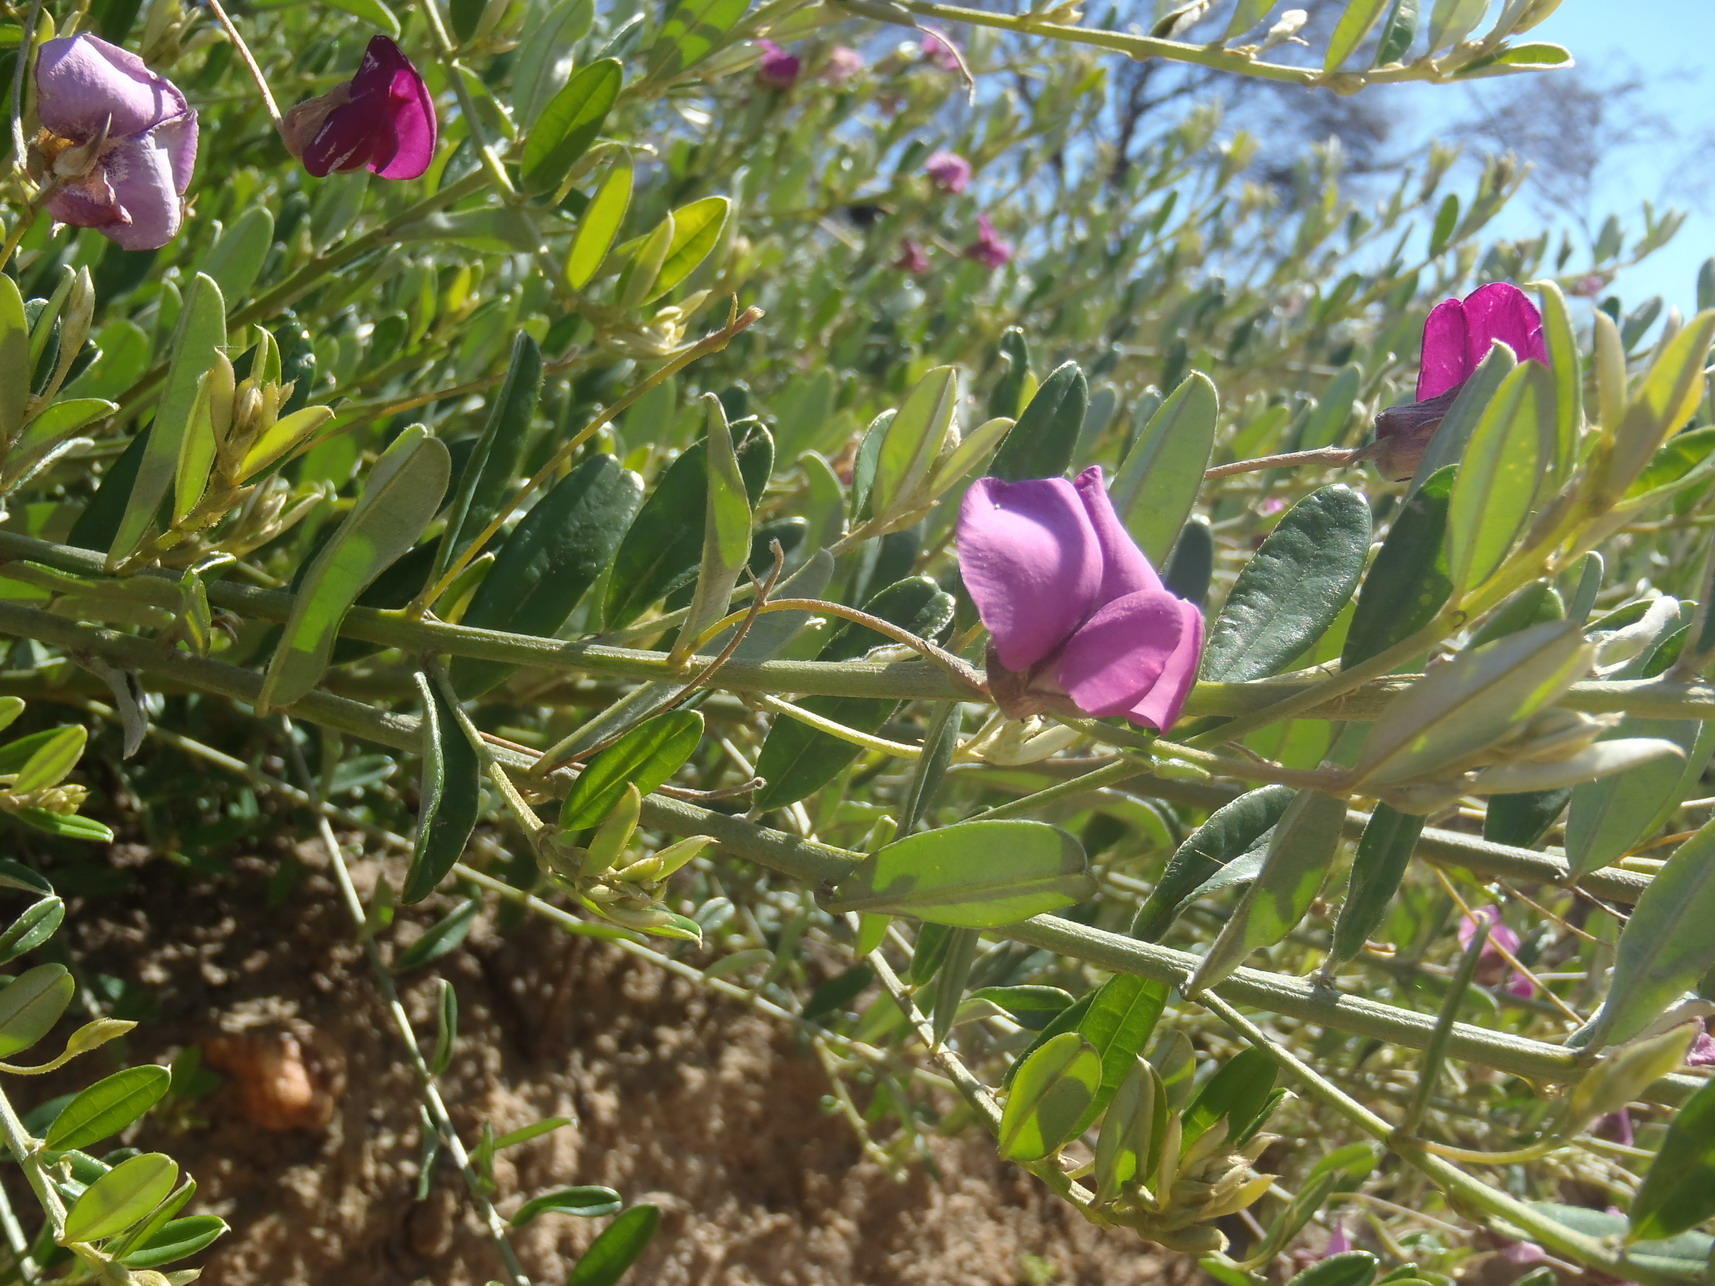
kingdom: Plantae
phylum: Tracheophyta
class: Magnoliopsida
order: Fabales
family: Fabaceae
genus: Podalyria
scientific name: Podalyria buxifolia
